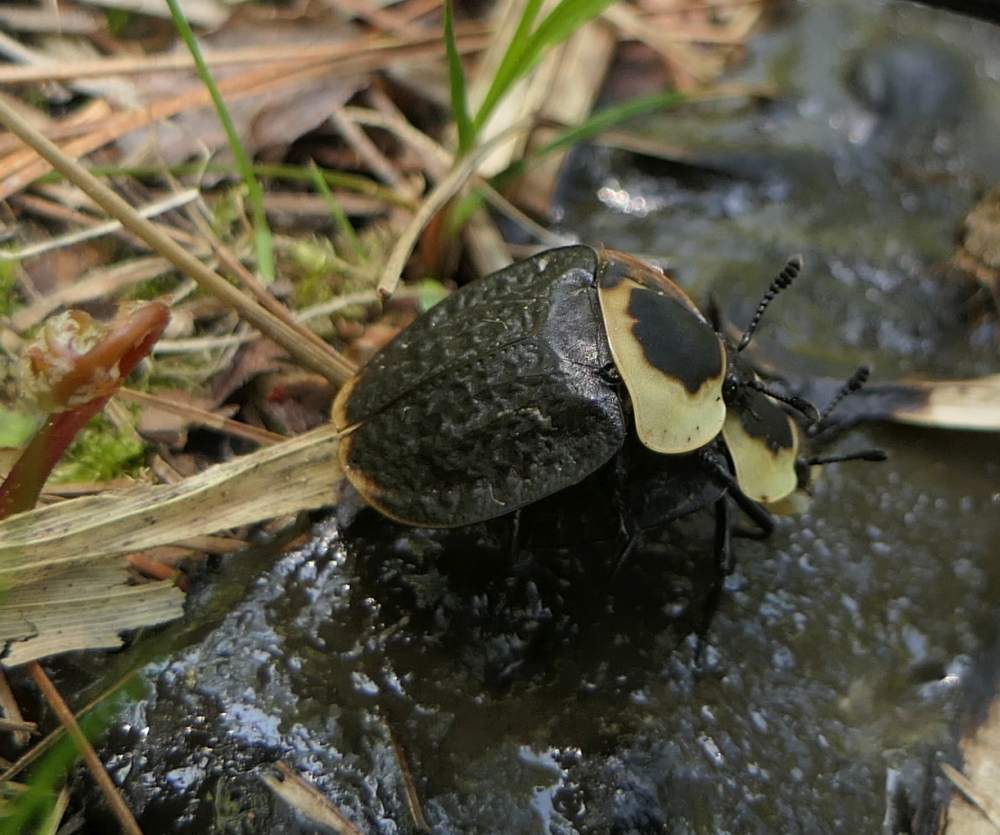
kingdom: Animalia
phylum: Arthropoda
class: Insecta
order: Coleoptera
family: Staphylinidae
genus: Necrophila
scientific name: Necrophila americana
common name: American carrion beetle
